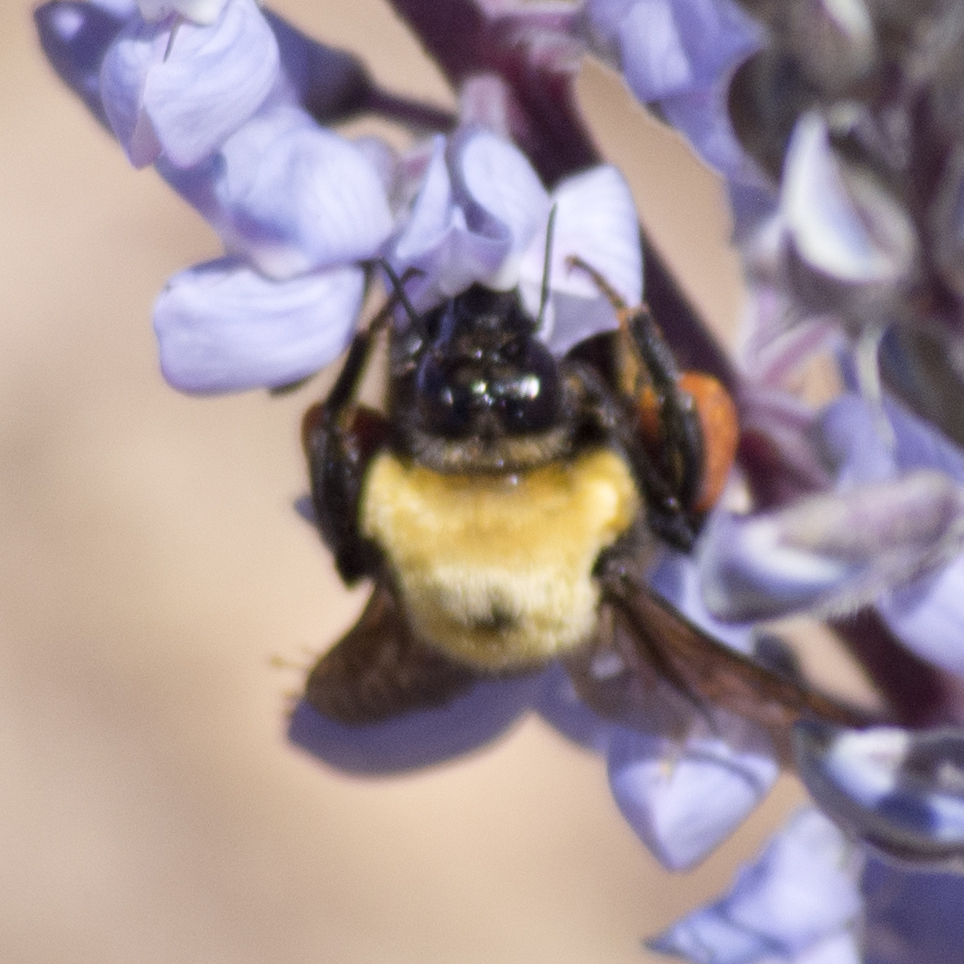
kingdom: Animalia
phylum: Arthropoda
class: Insecta
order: Hymenoptera
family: Apidae
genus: Bombus
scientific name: Bombus nevadensis
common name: Nevada bumble bee
